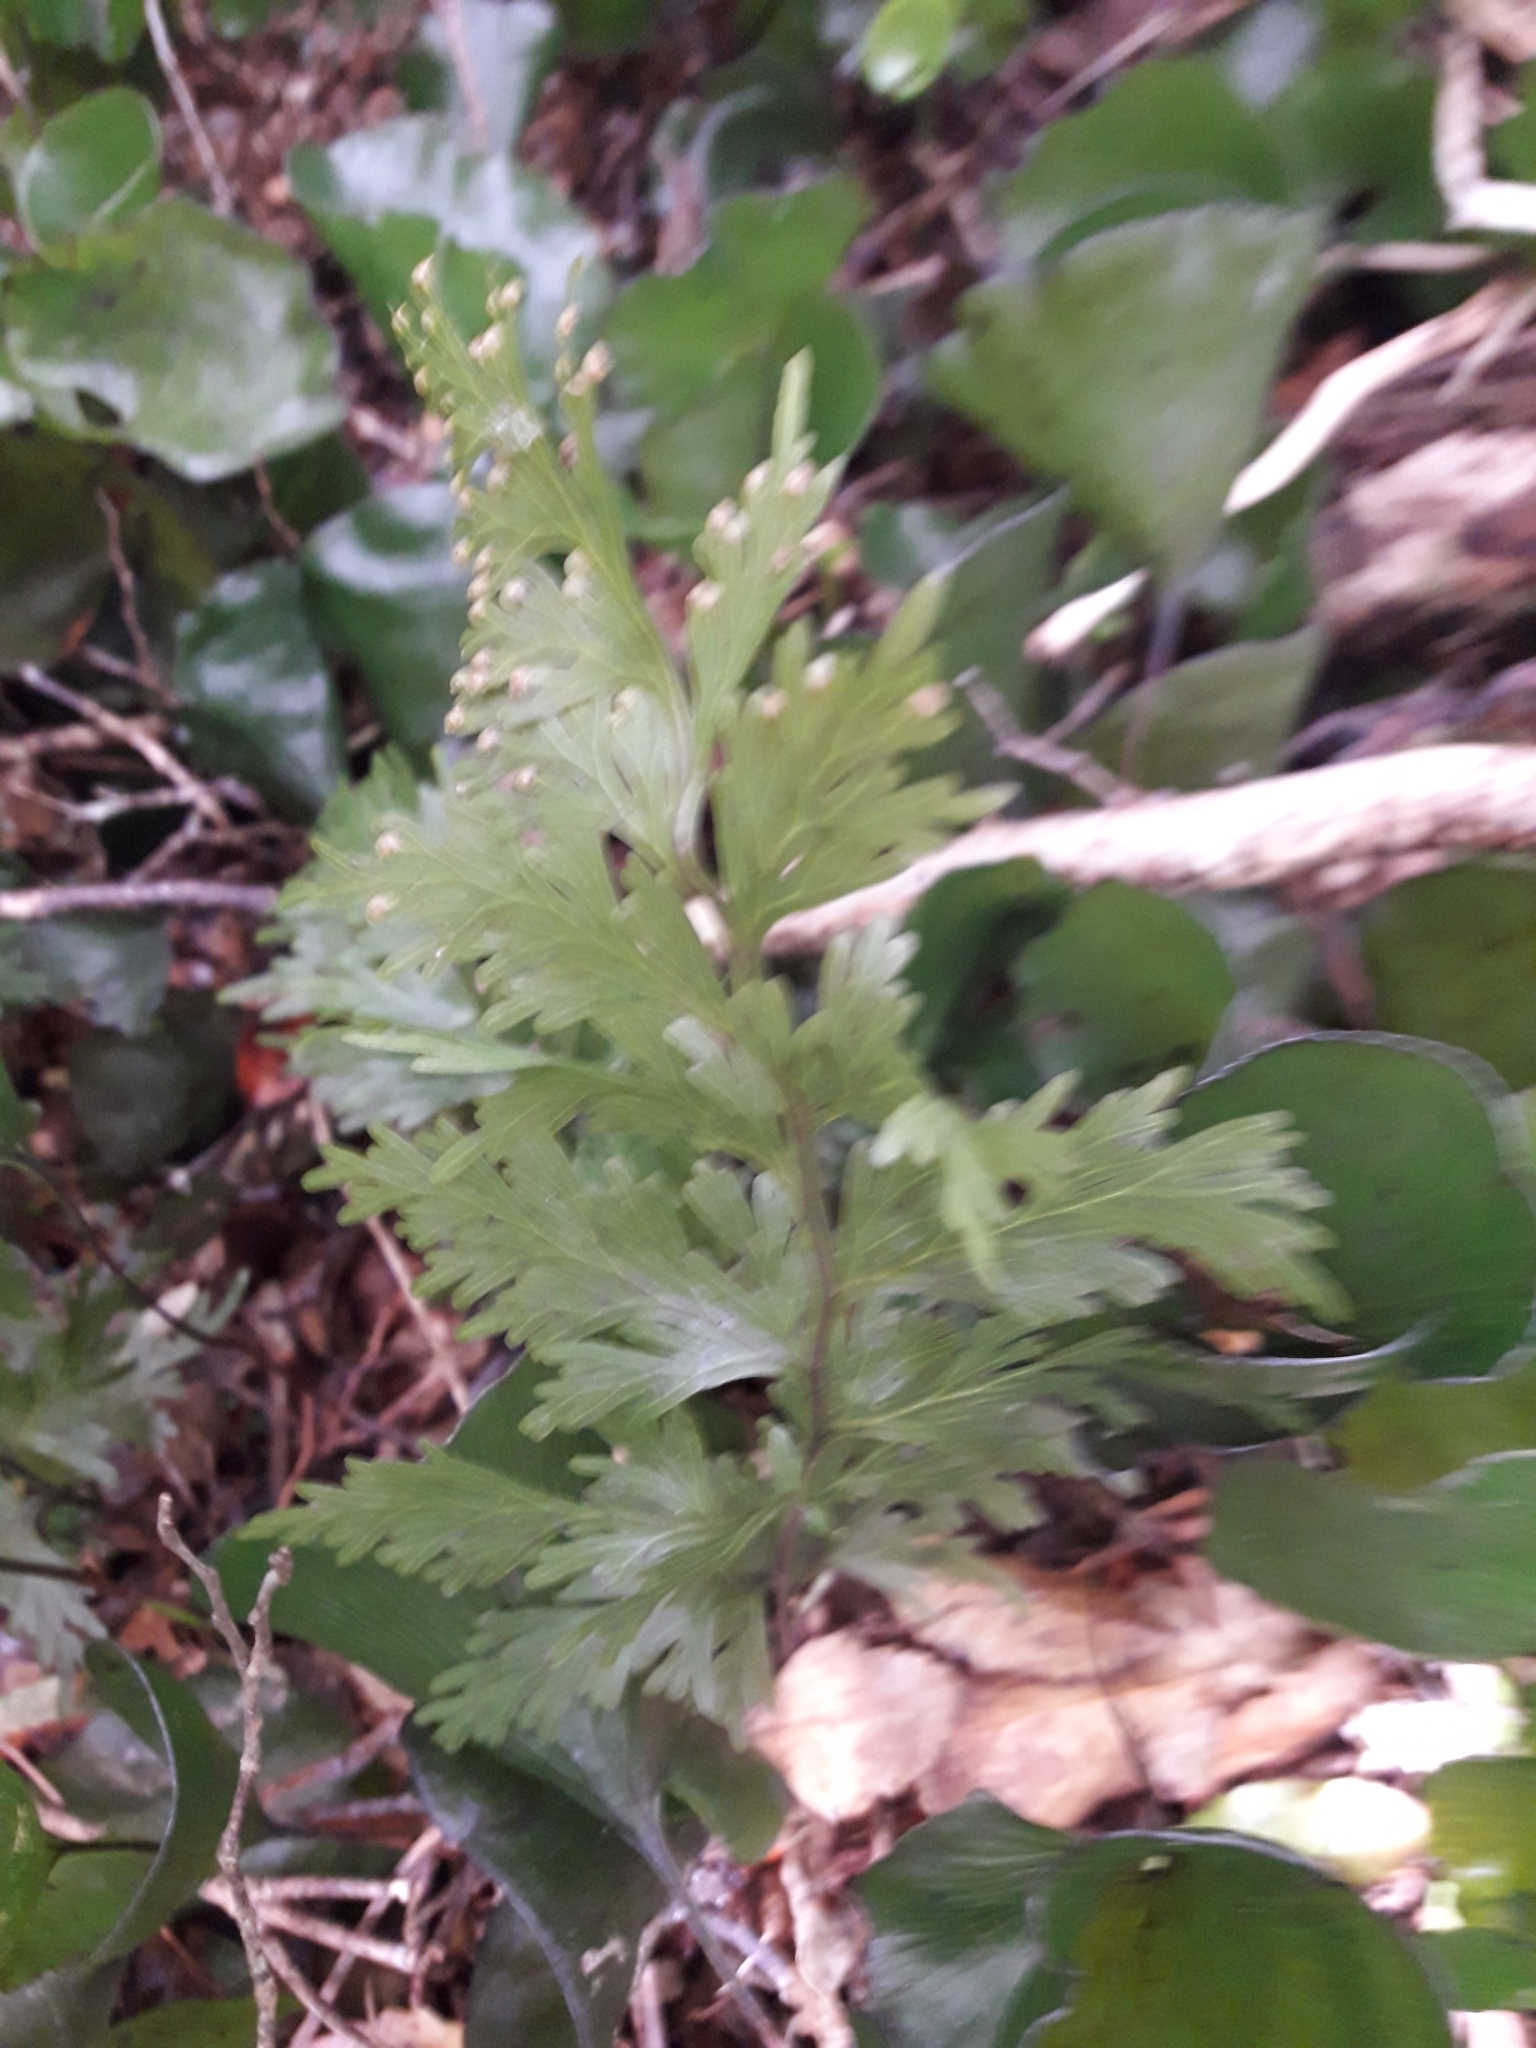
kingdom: Plantae
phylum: Tracheophyta
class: Polypodiopsida
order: Hymenophyllales
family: Hymenophyllaceae
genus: Hymenophyllum
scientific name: Hymenophyllum dilatatum
